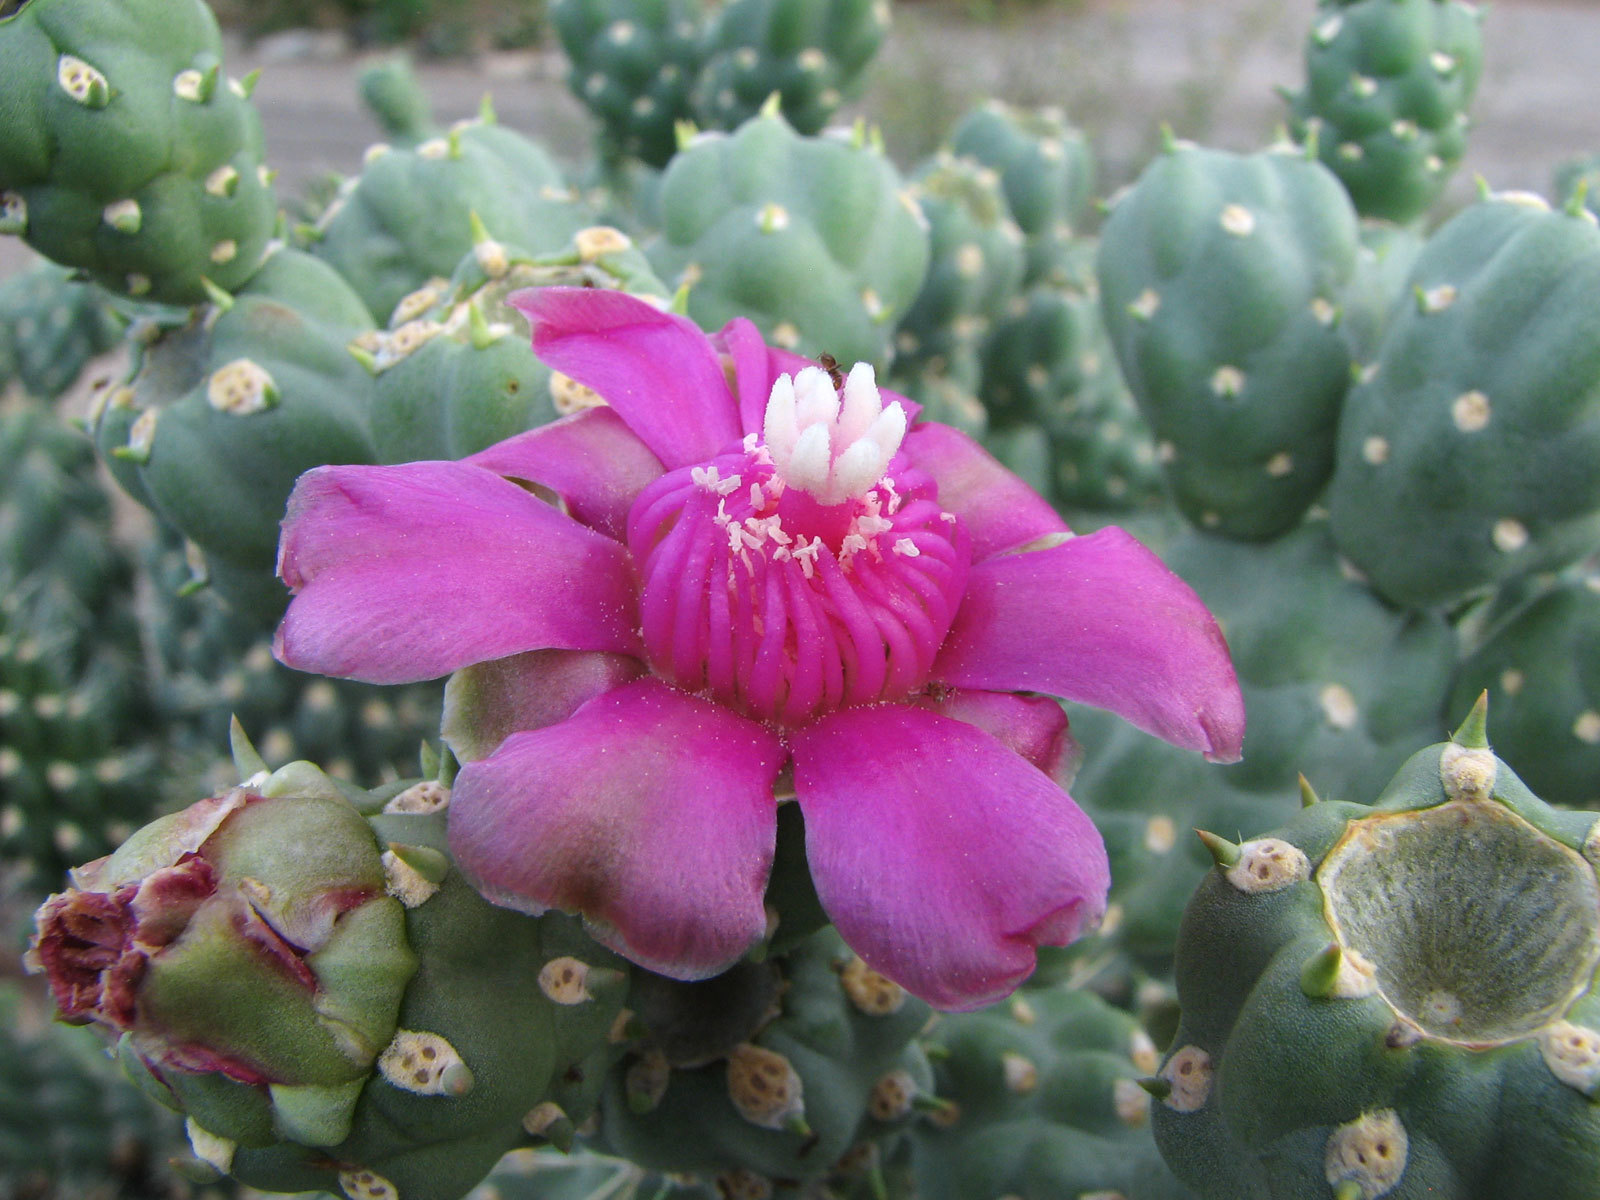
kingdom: Plantae
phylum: Tracheophyta
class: Magnoliopsida
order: Caryophyllales
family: Cactaceae
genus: Cylindropuntia
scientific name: Cylindropuntia fulgida
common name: Jumping cholla
